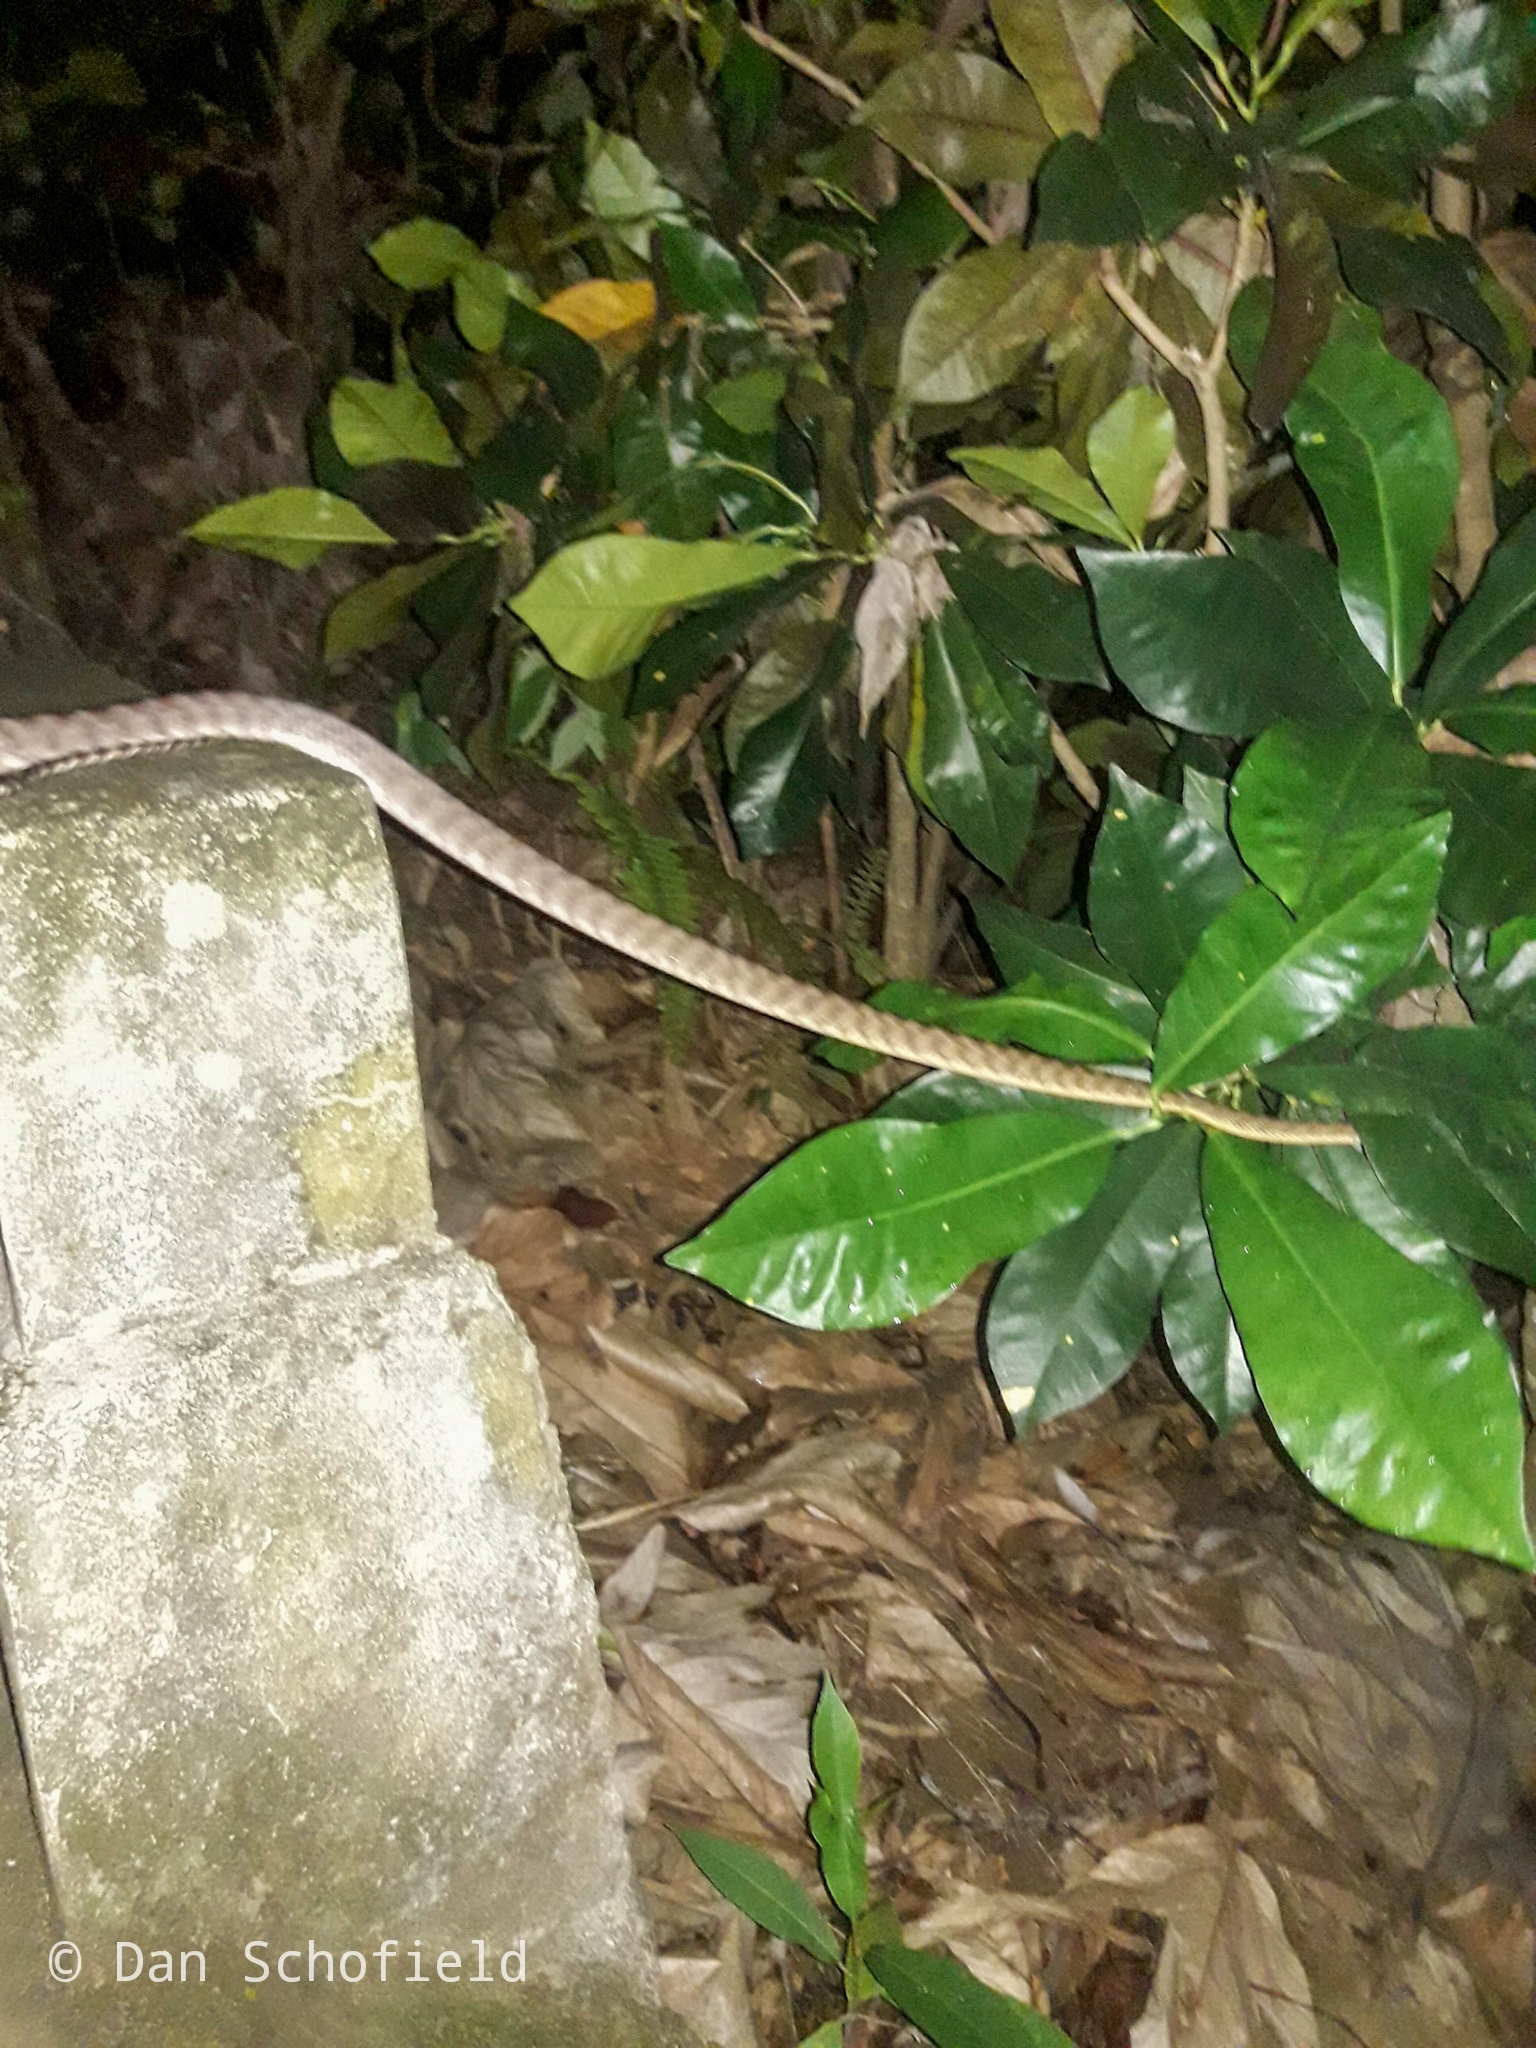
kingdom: Animalia
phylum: Chordata
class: Squamata
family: Colubridae
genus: Boiga
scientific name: Boiga irregularis
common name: Brown tree snake
